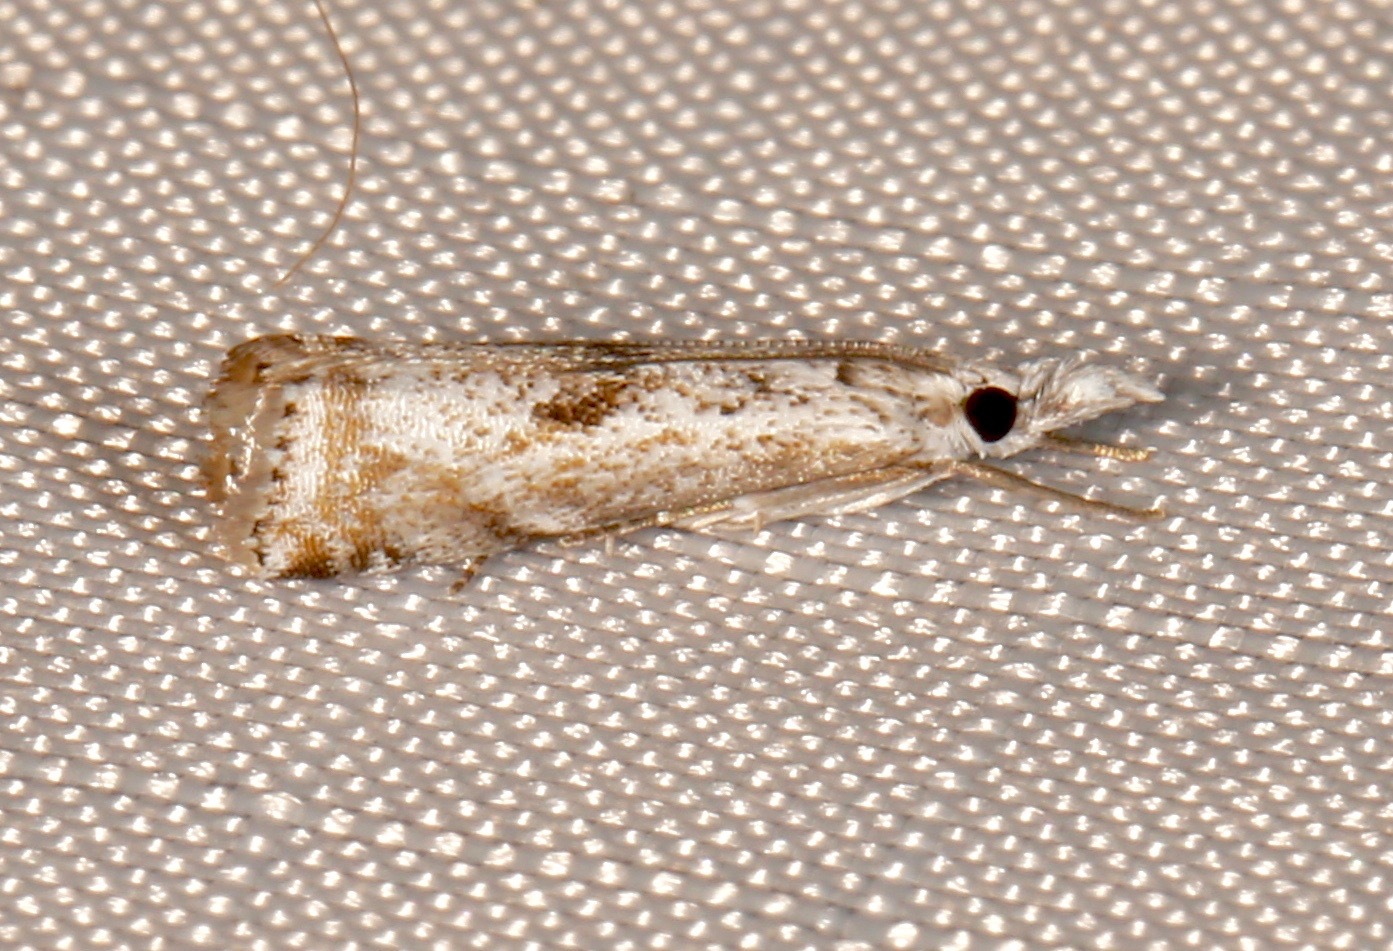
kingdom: Animalia
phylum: Arthropoda
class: Insecta
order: Lepidoptera
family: Crambidae
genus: Microcrambus
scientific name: Microcrambus elegans
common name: Elegant grass-veneer
